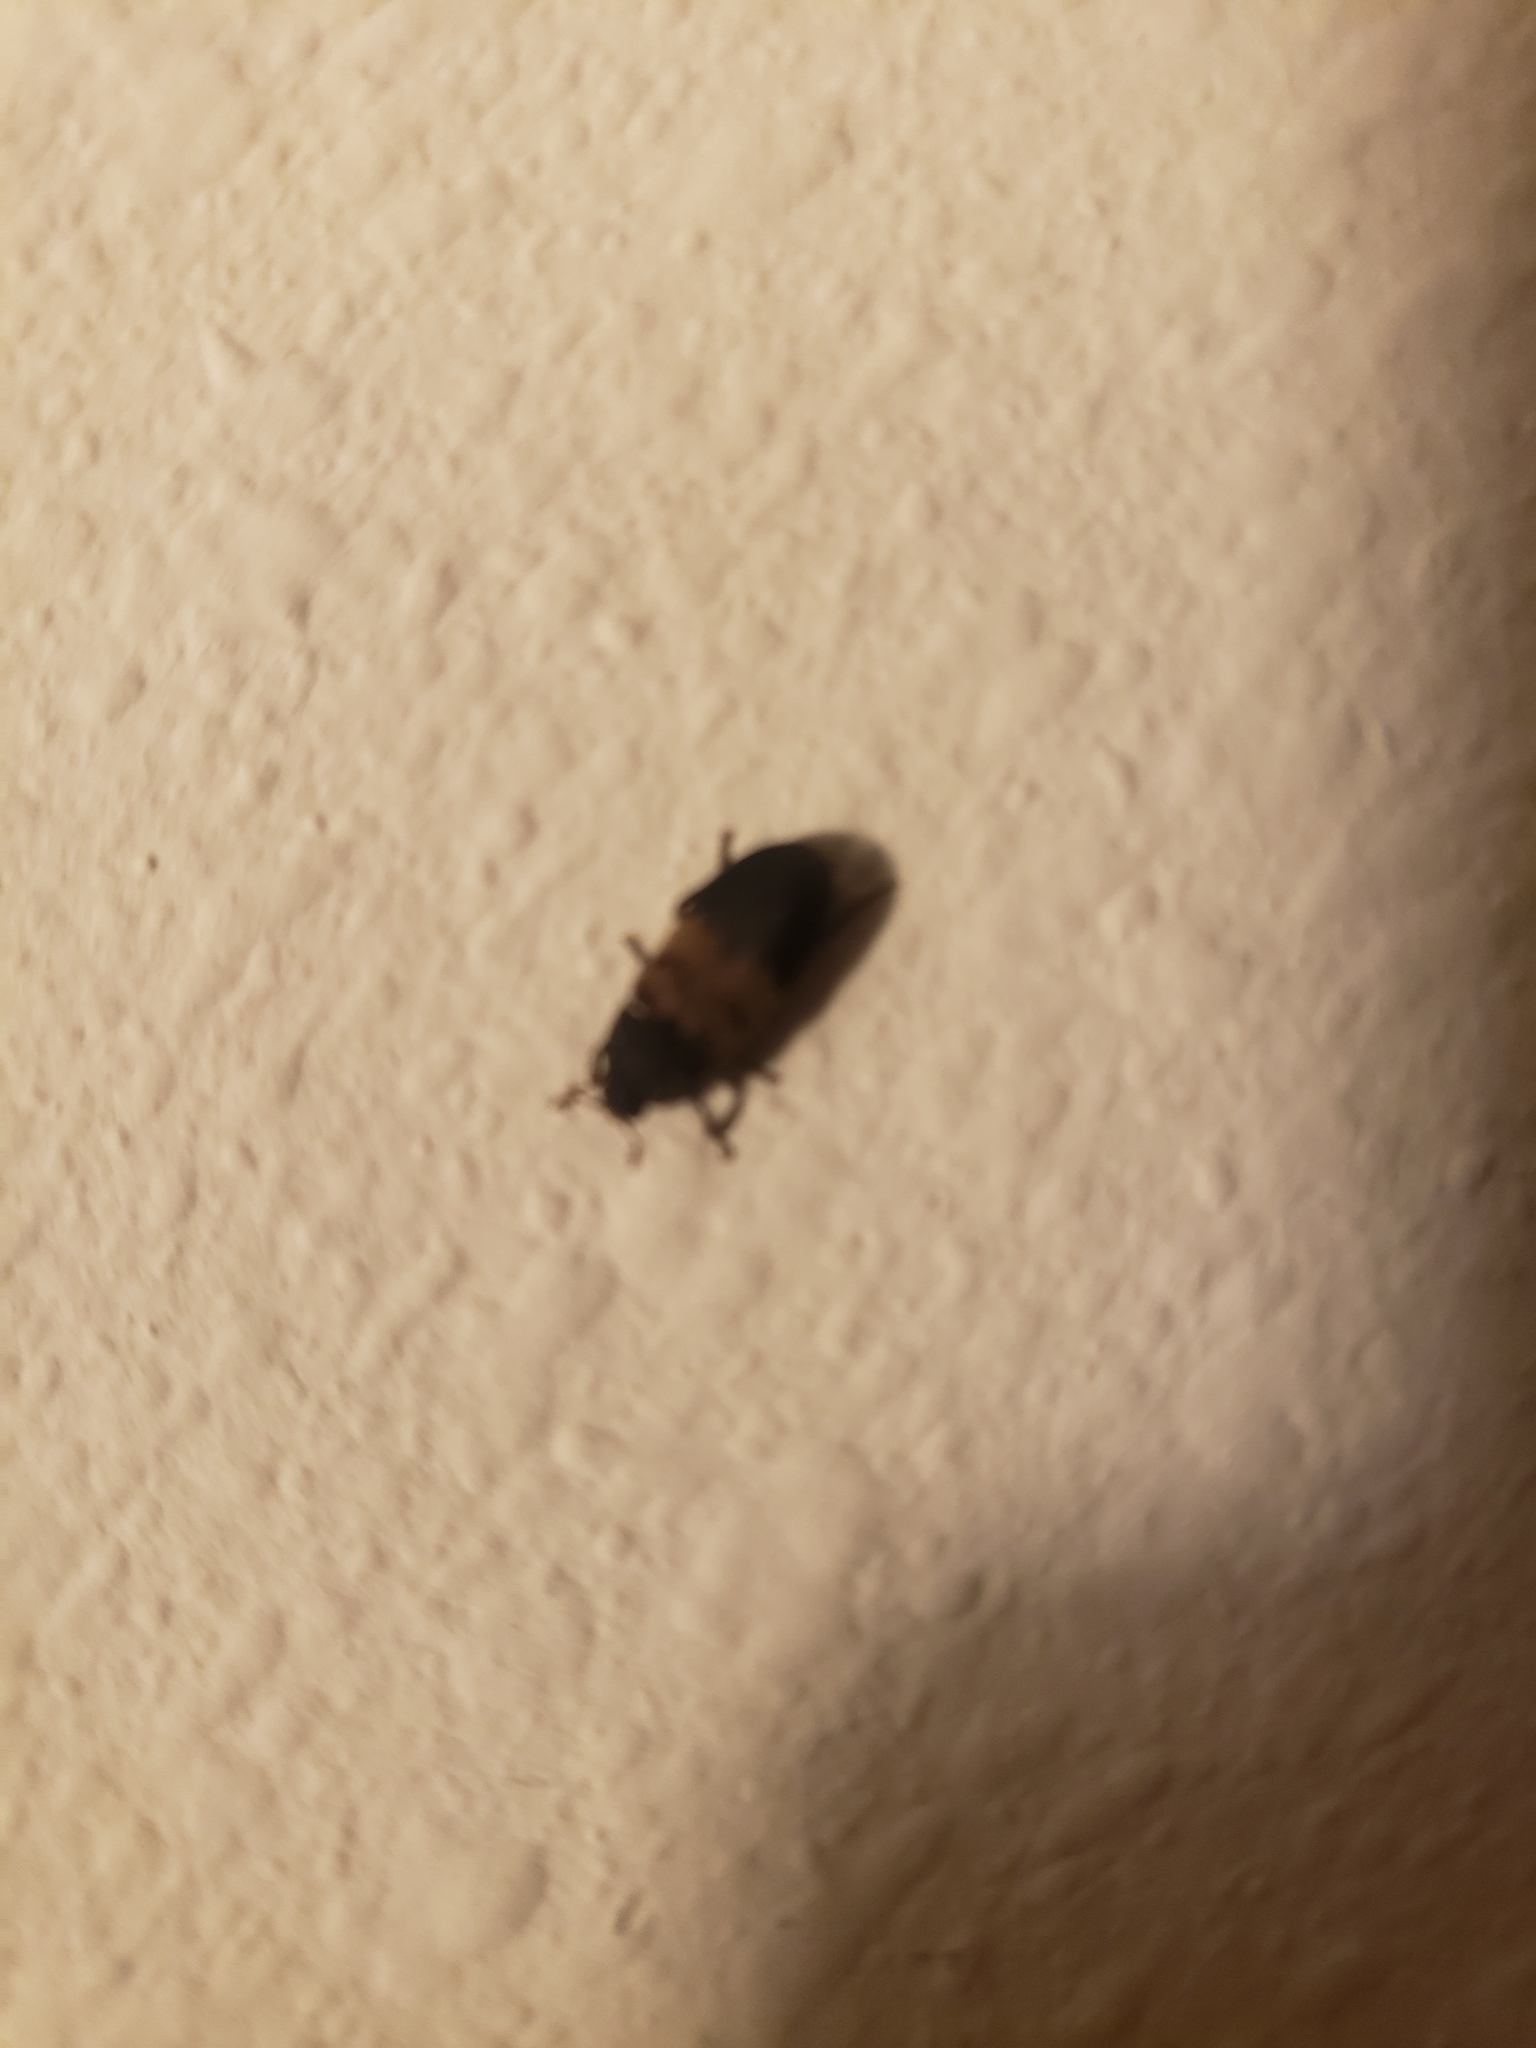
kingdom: Animalia
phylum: Arthropoda
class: Insecta
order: Coleoptera
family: Dermestidae
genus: Dermestes
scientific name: Dermestes lardarius
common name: Larder beetle
